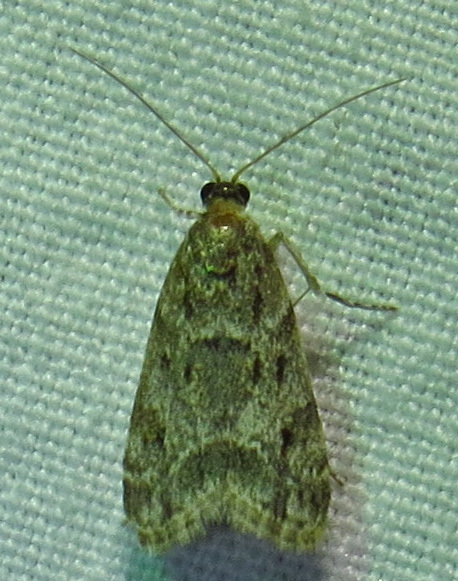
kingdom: Animalia
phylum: Arthropoda
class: Insecta
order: Lepidoptera
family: Crambidae
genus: Eudonia
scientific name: Eudonia heterosalis
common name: Mcdunnough's eudonia
